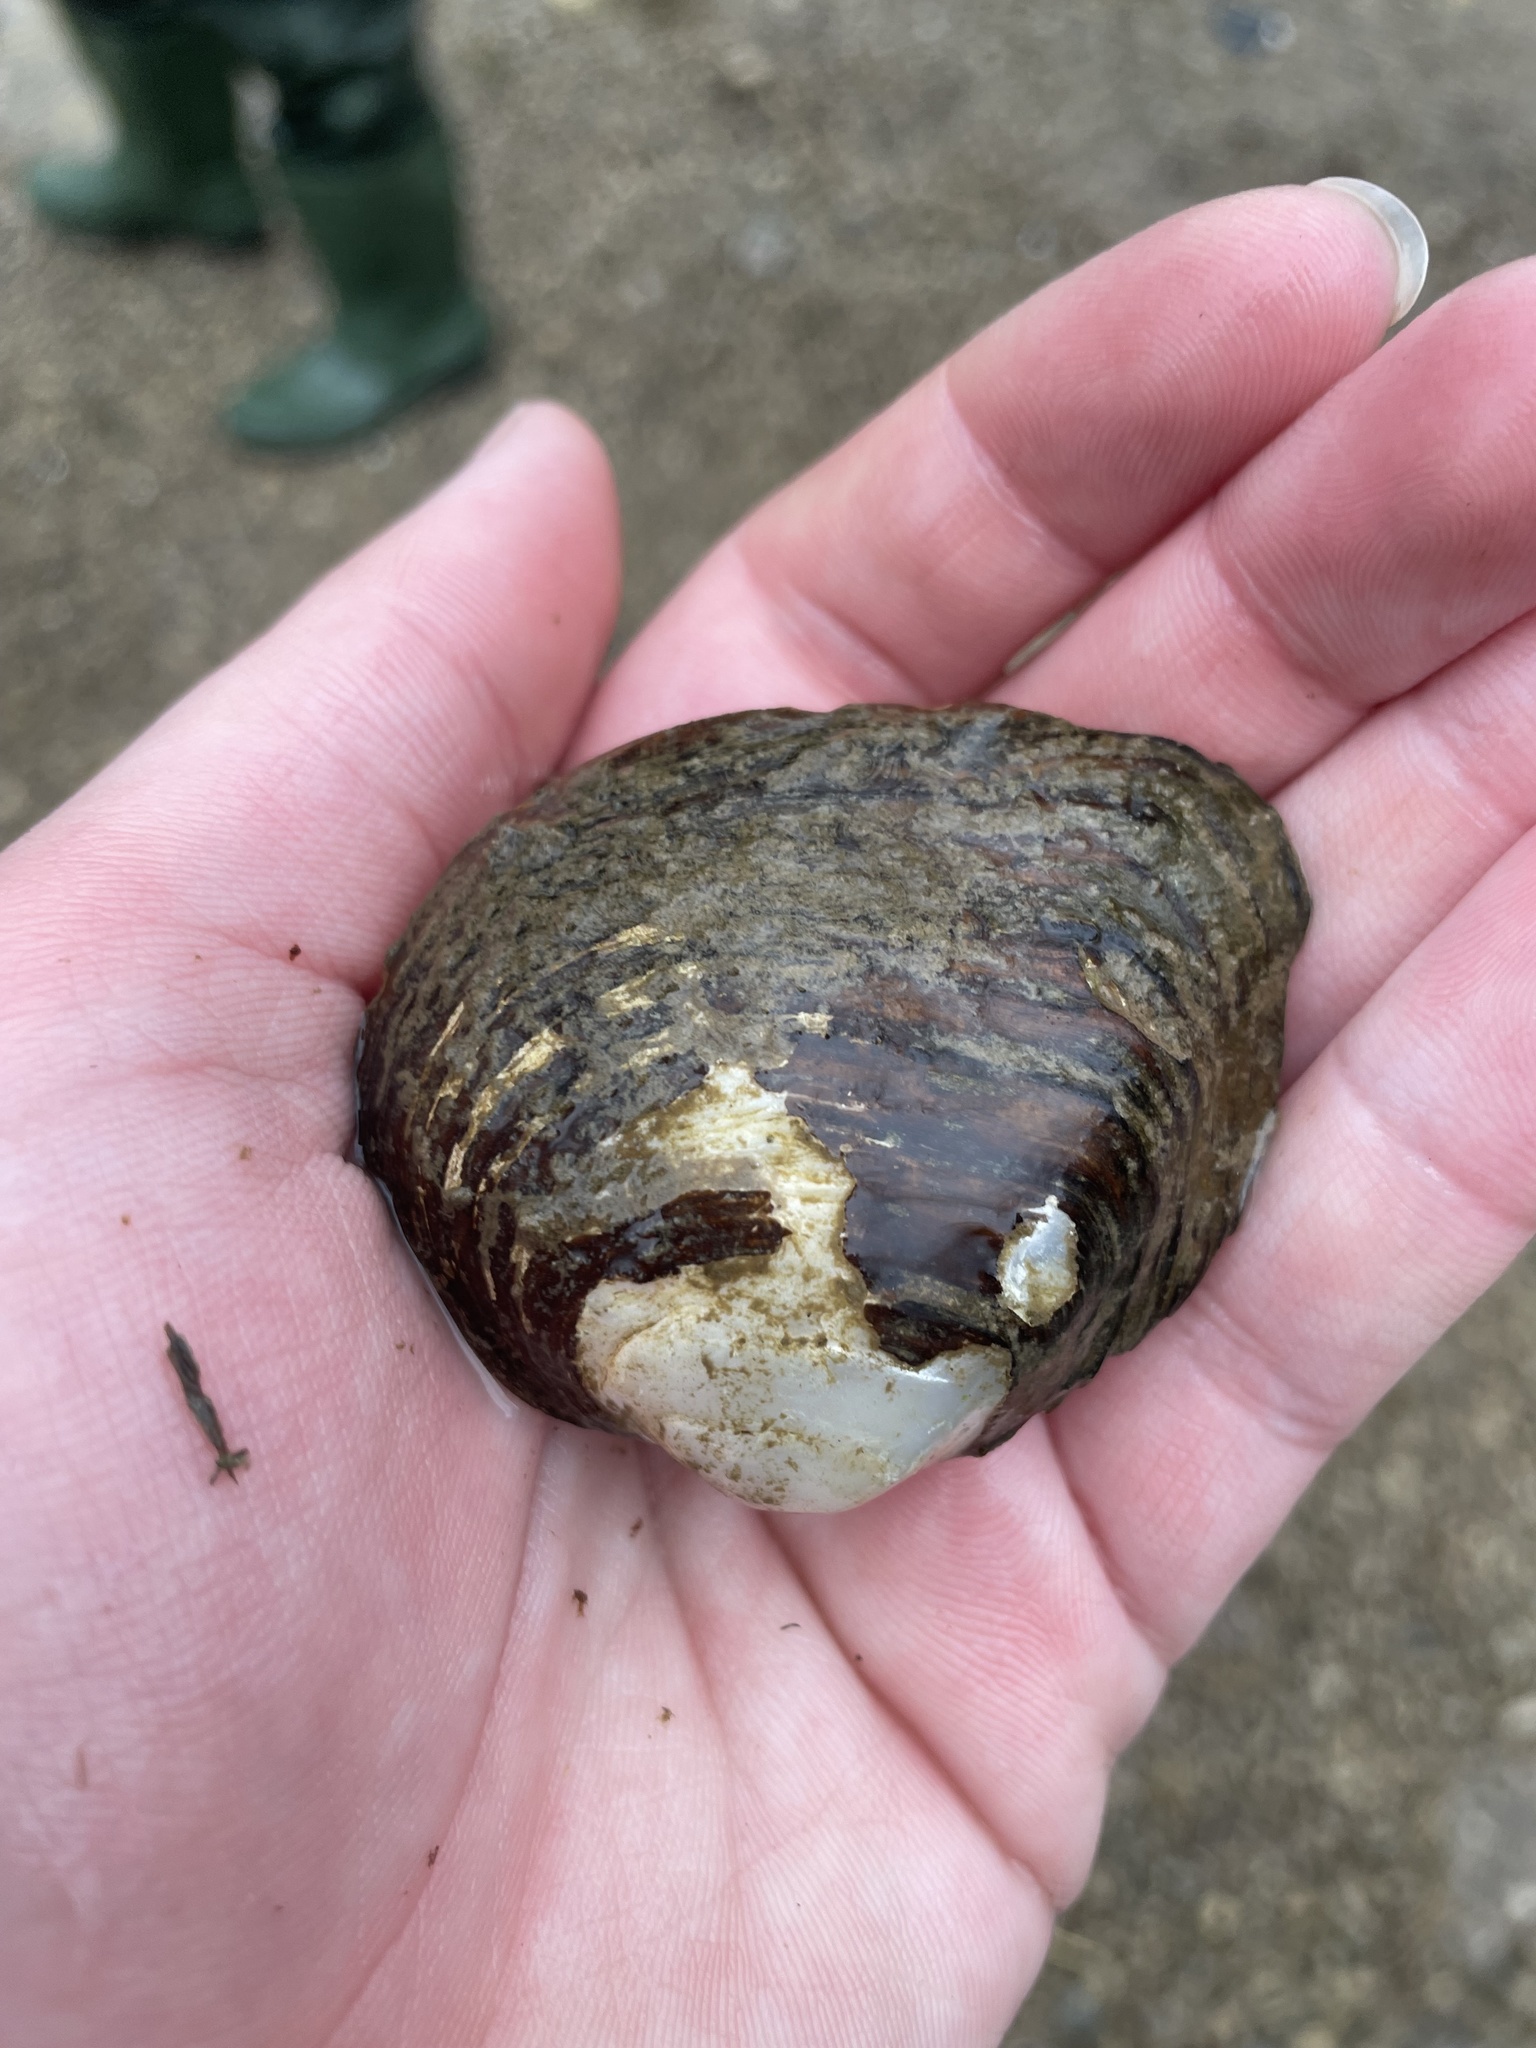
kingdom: Animalia
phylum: Mollusca
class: Bivalvia
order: Unionida
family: Unionidae
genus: Fusconaia
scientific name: Fusconaia flava
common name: Wabash pigtoe
